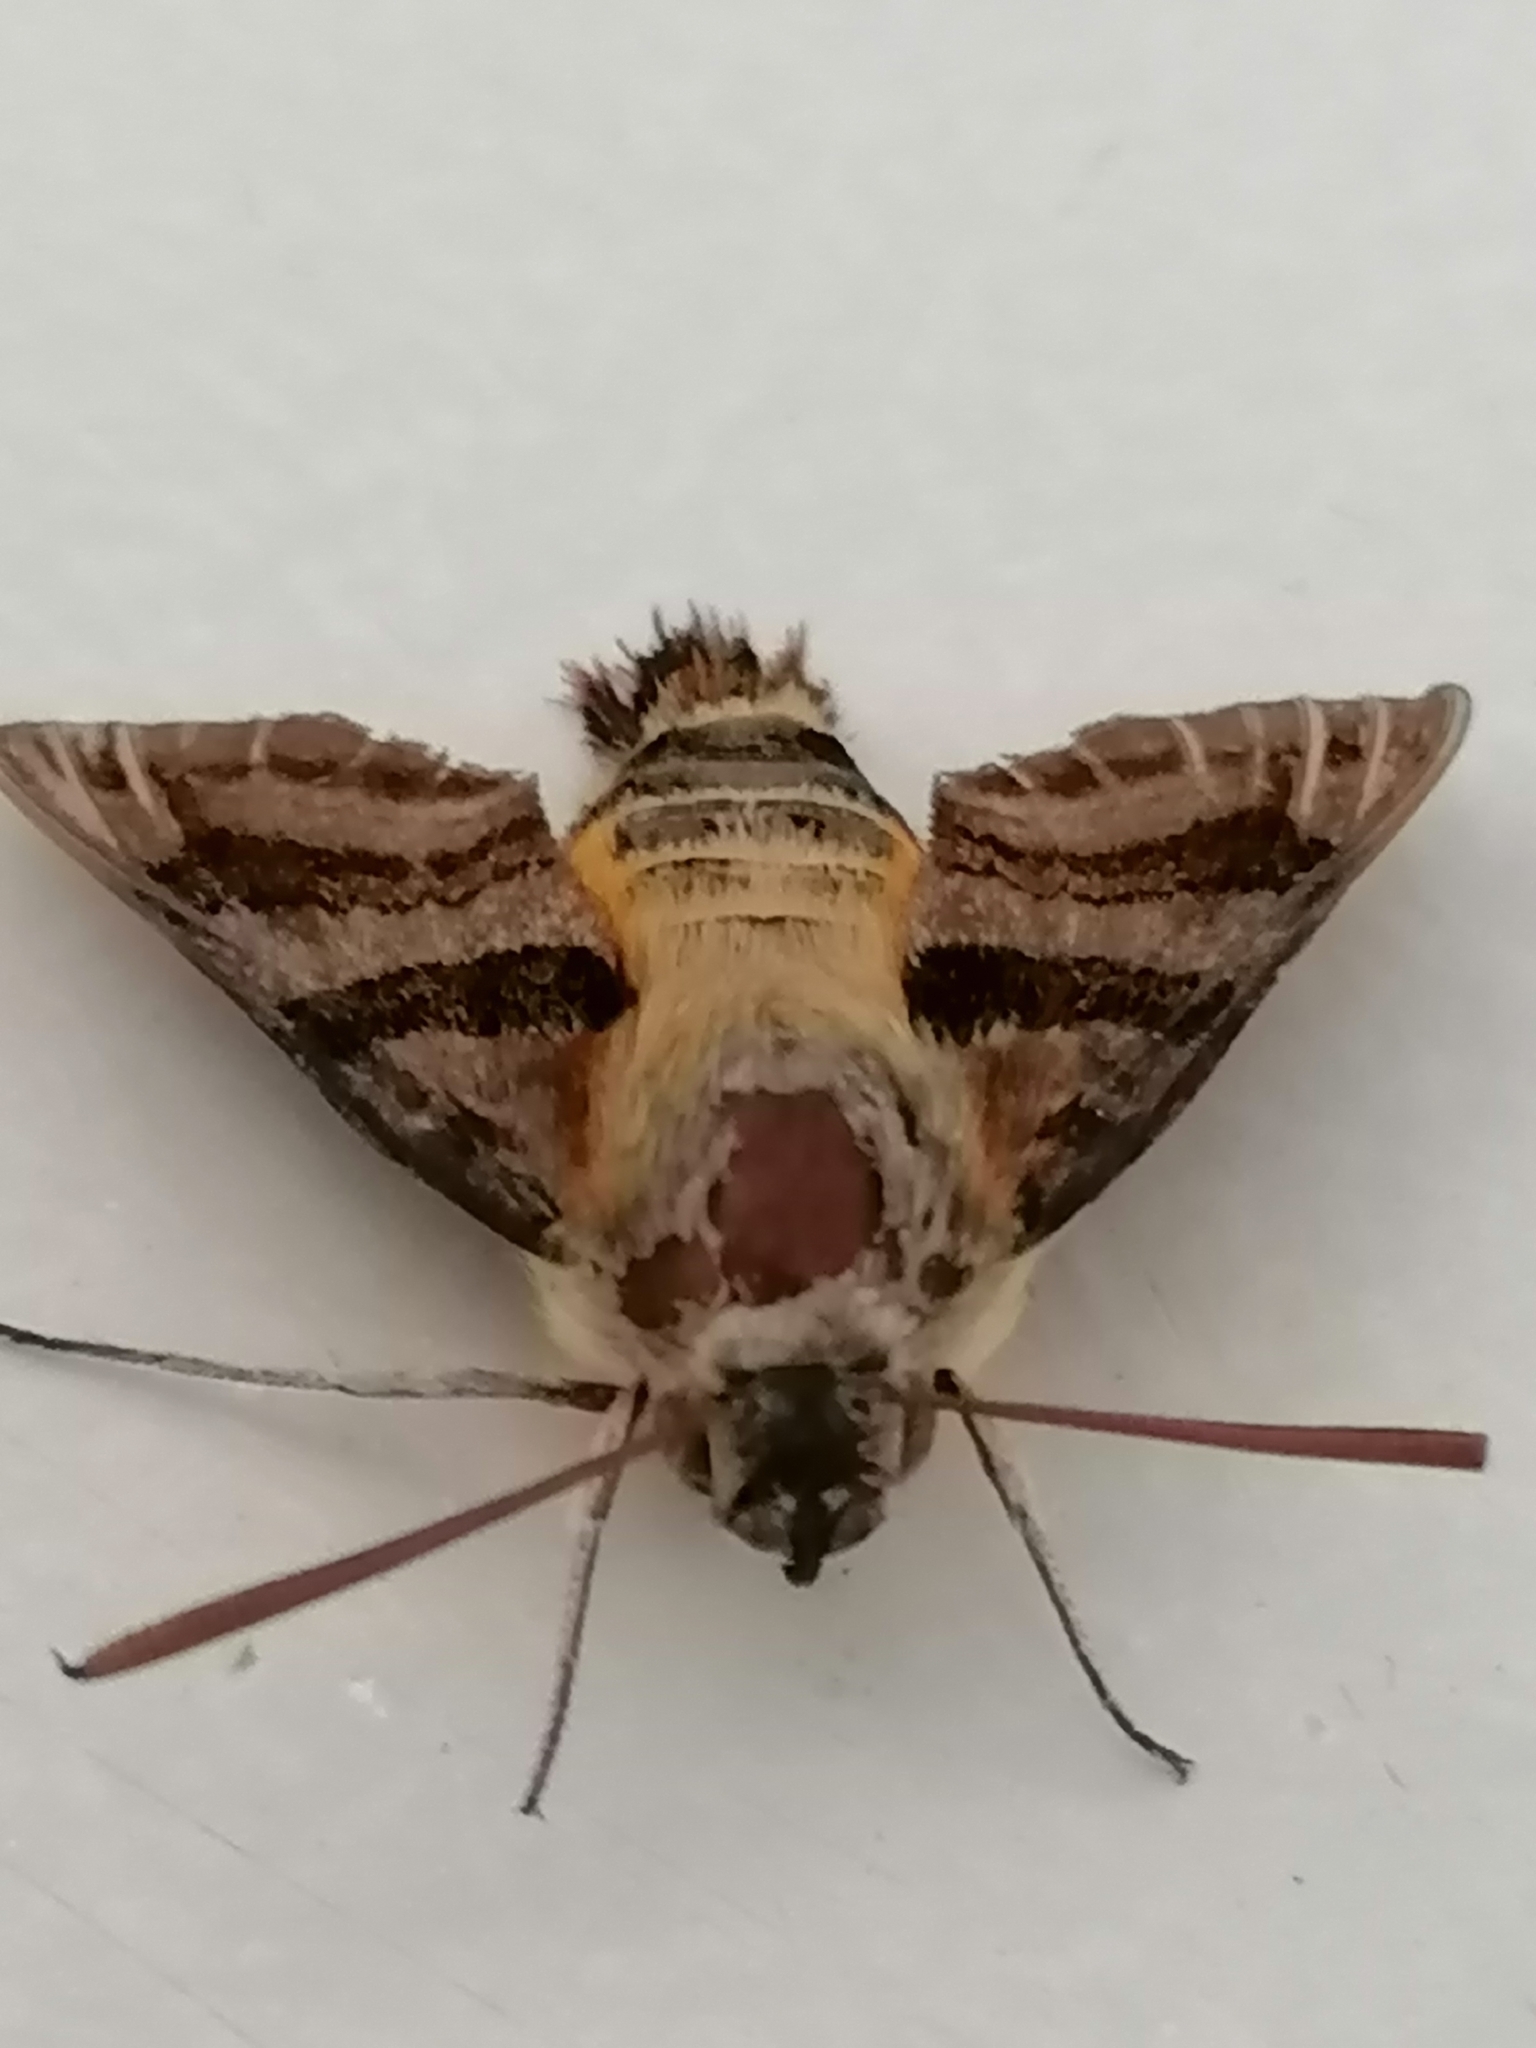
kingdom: Animalia
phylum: Arthropoda
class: Insecta
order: Lepidoptera
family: Sphingidae
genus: Macroglossum
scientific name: Macroglossum trochilus
